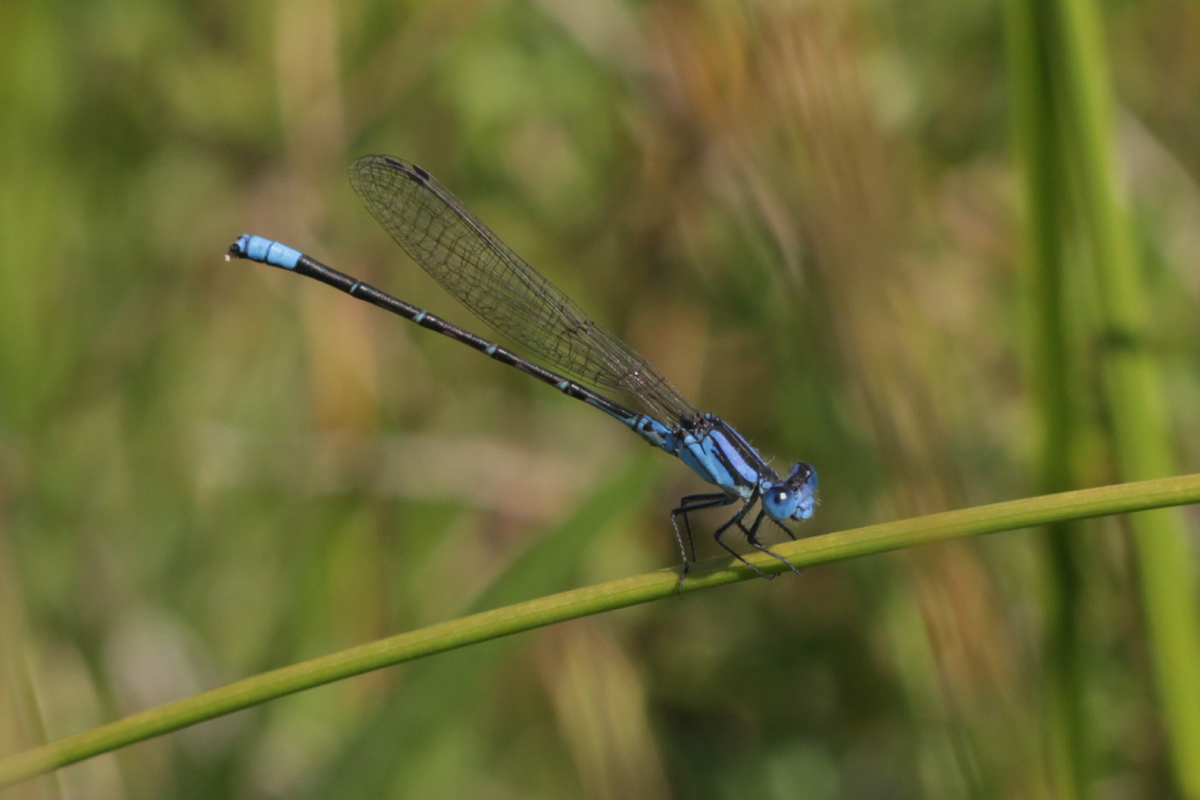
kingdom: Animalia
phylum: Arthropoda
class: Insecta
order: Odonata
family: Coenagrionidae
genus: Argia
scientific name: Argia alberta
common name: Paiute dancer
